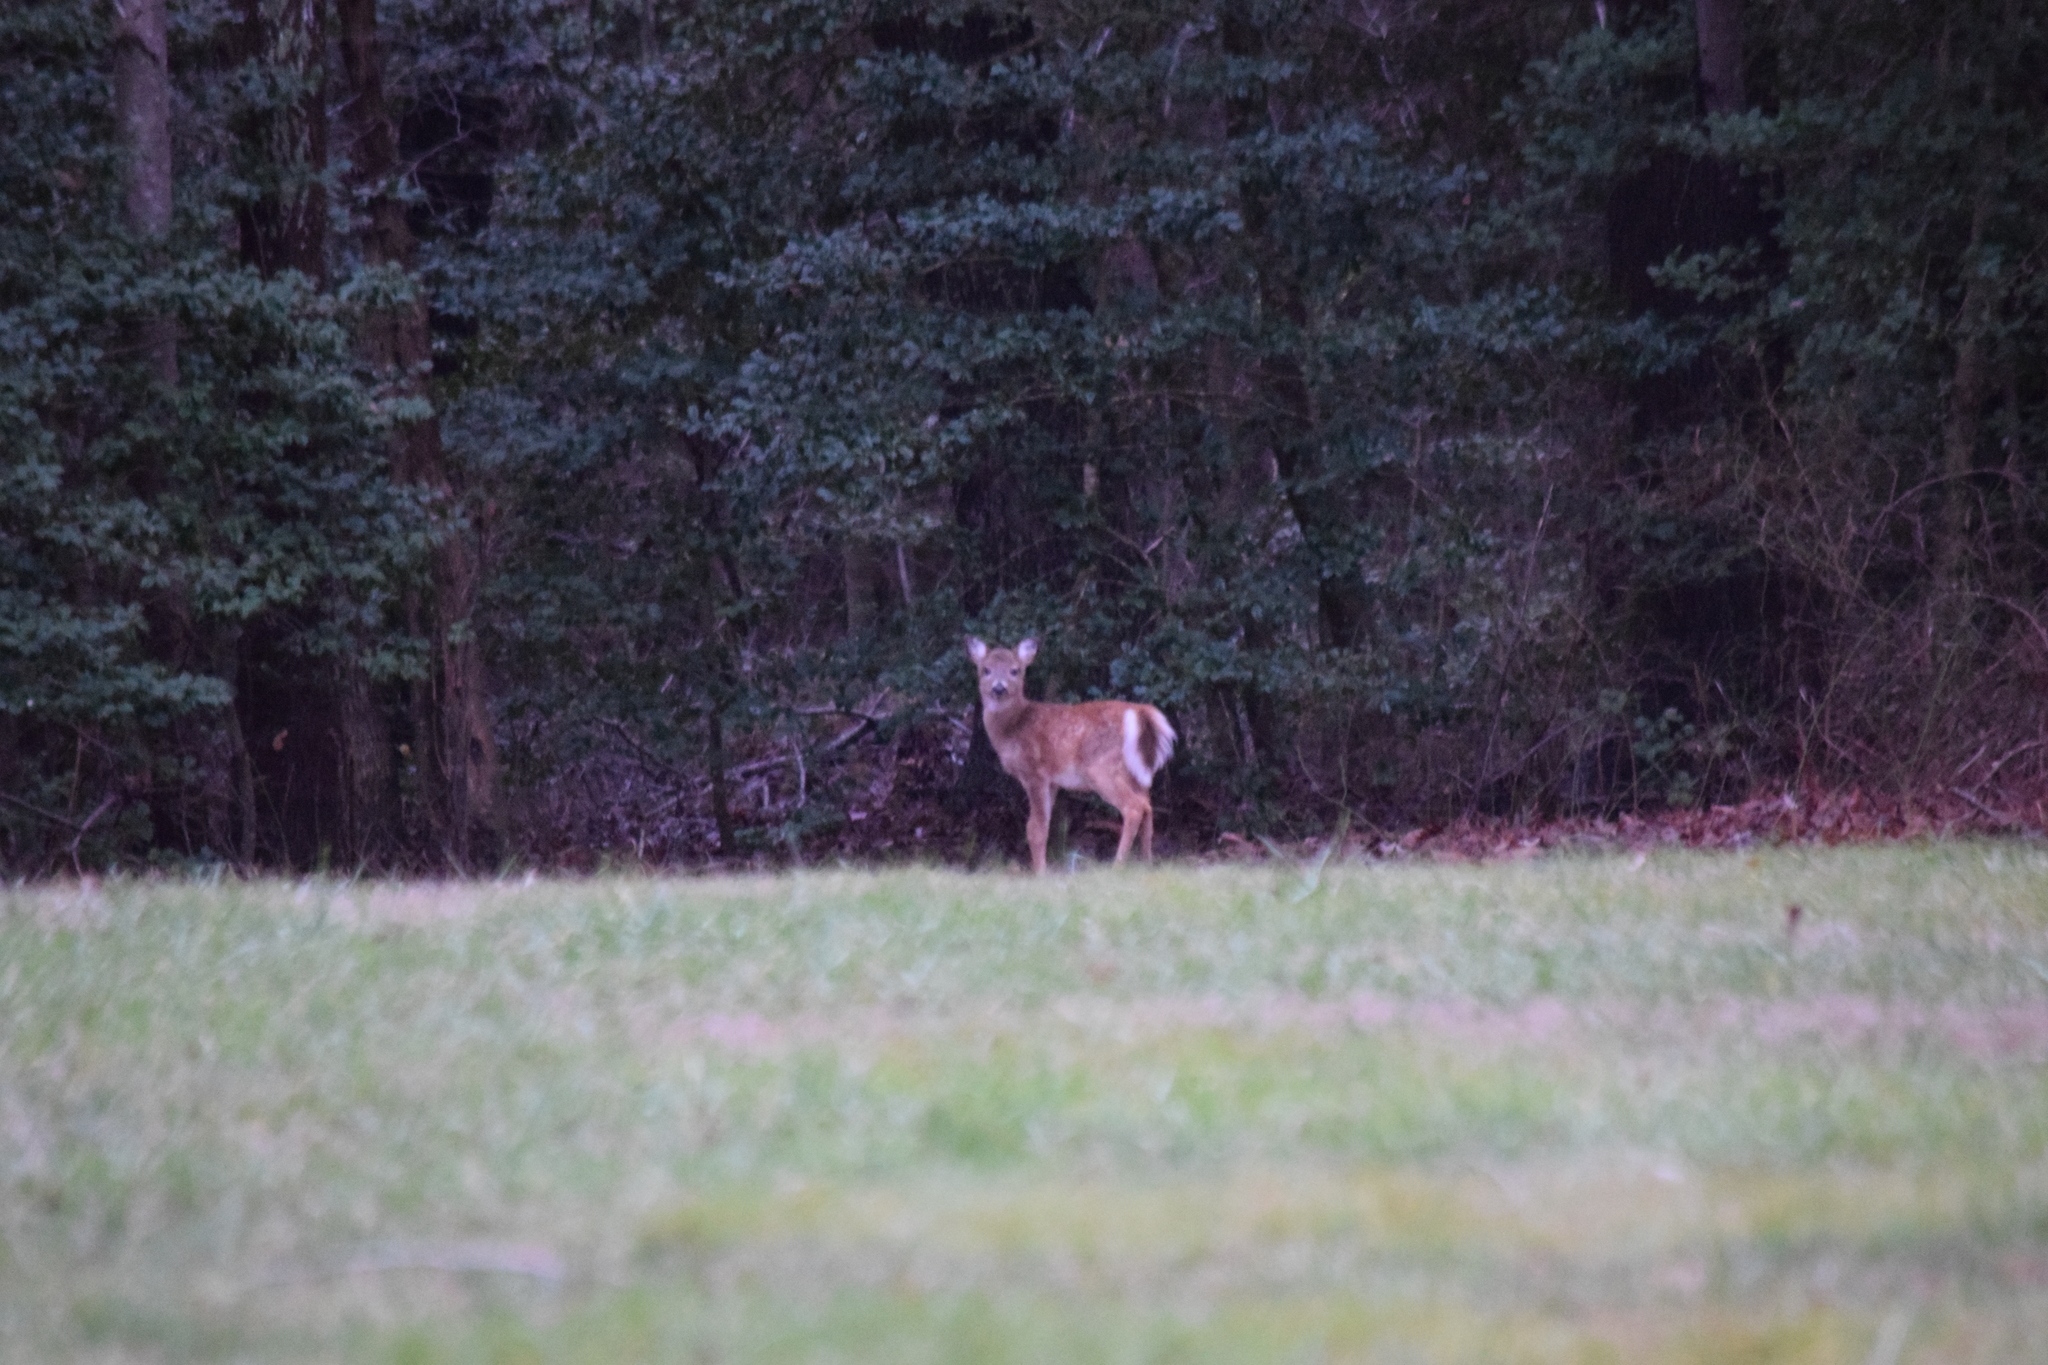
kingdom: Animalia
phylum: Chordata
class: Mammalia
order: Artiodactyla
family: Cervidae
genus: Odocoileus
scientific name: Odocoileus virginianus
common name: White-tailed deer
